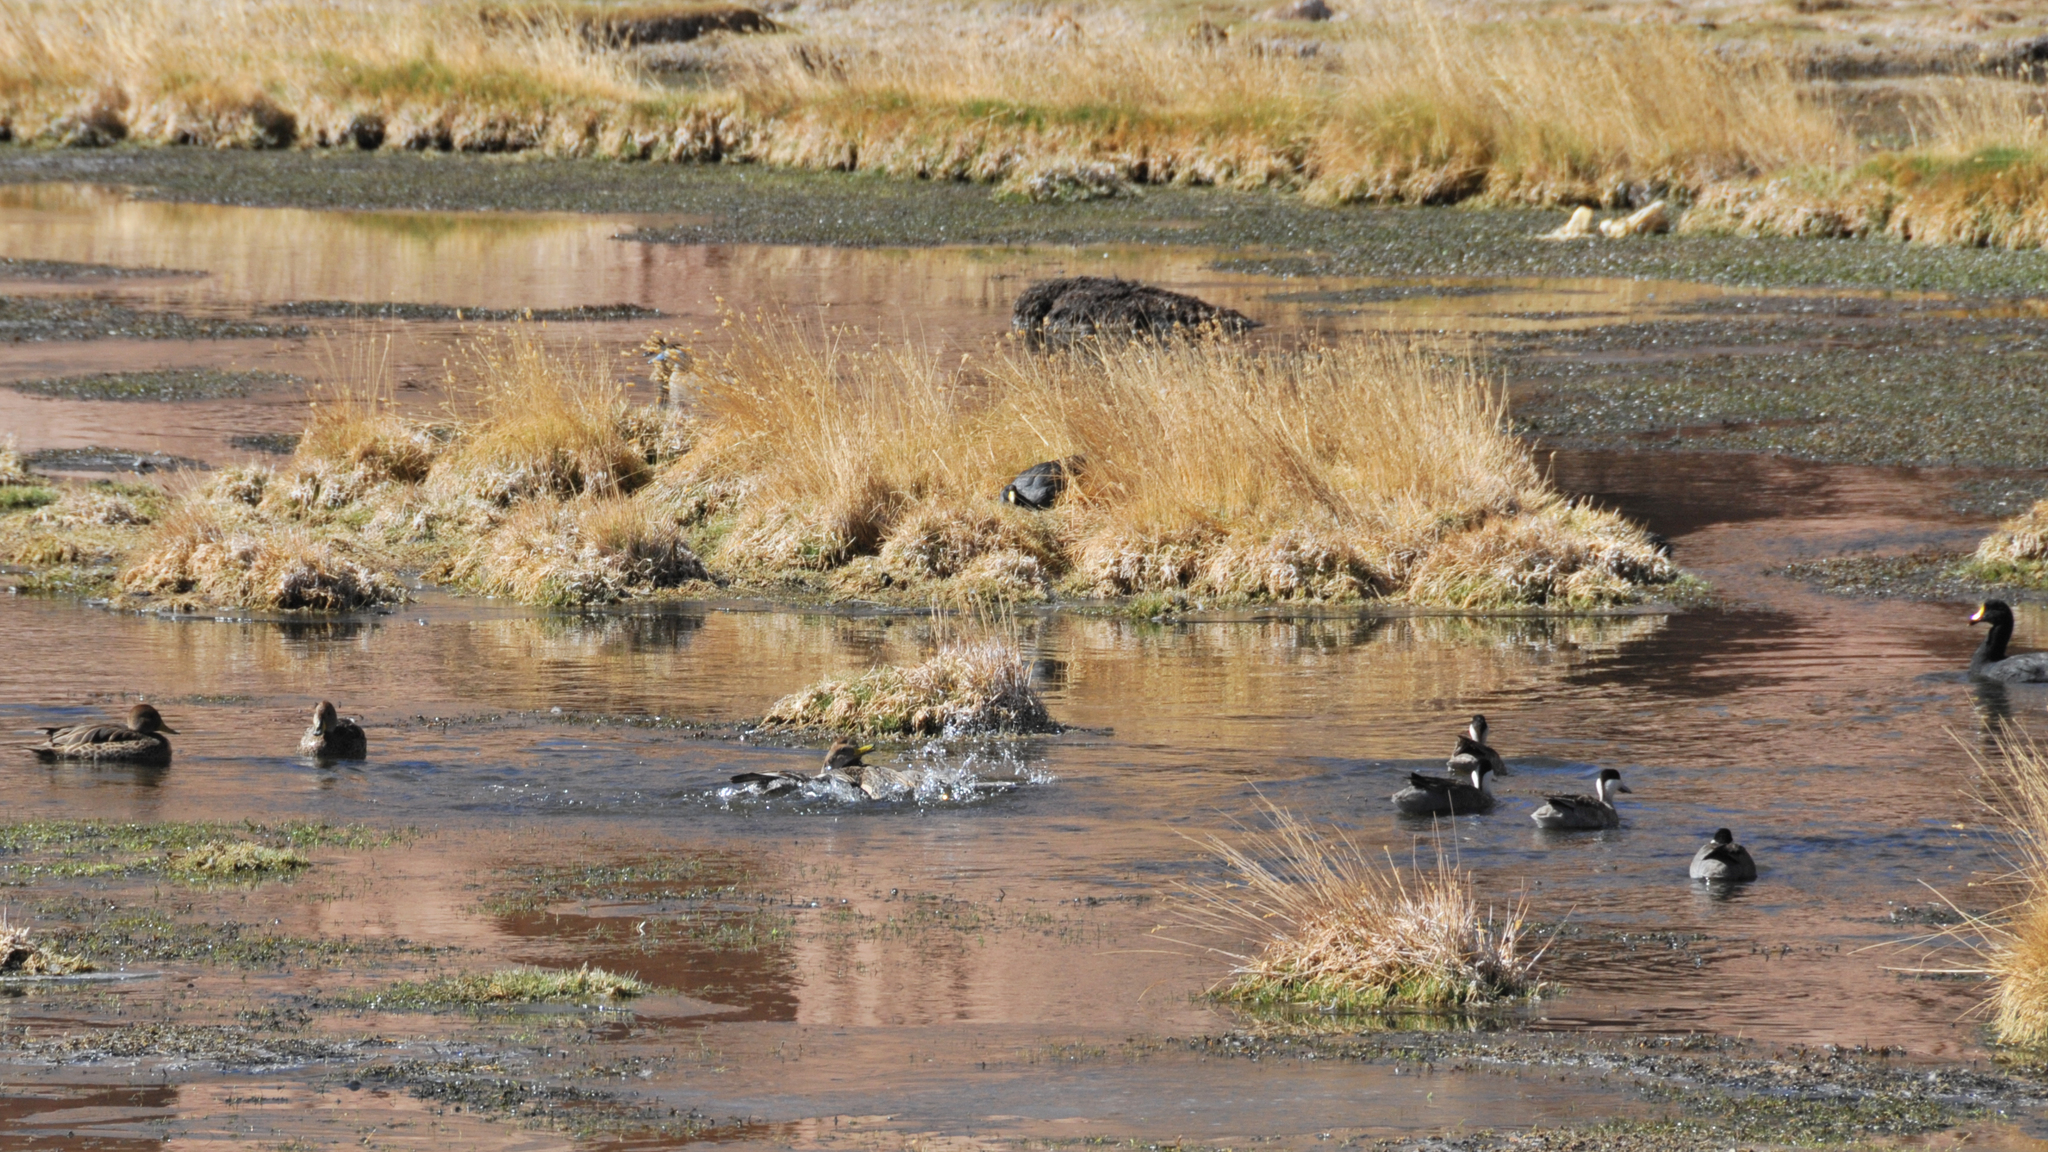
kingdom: Animalia
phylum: Chordata
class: Aves
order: Anseriformes
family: Anatidae
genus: Anas
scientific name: Anas georgica
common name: Yellow-billed pintail
